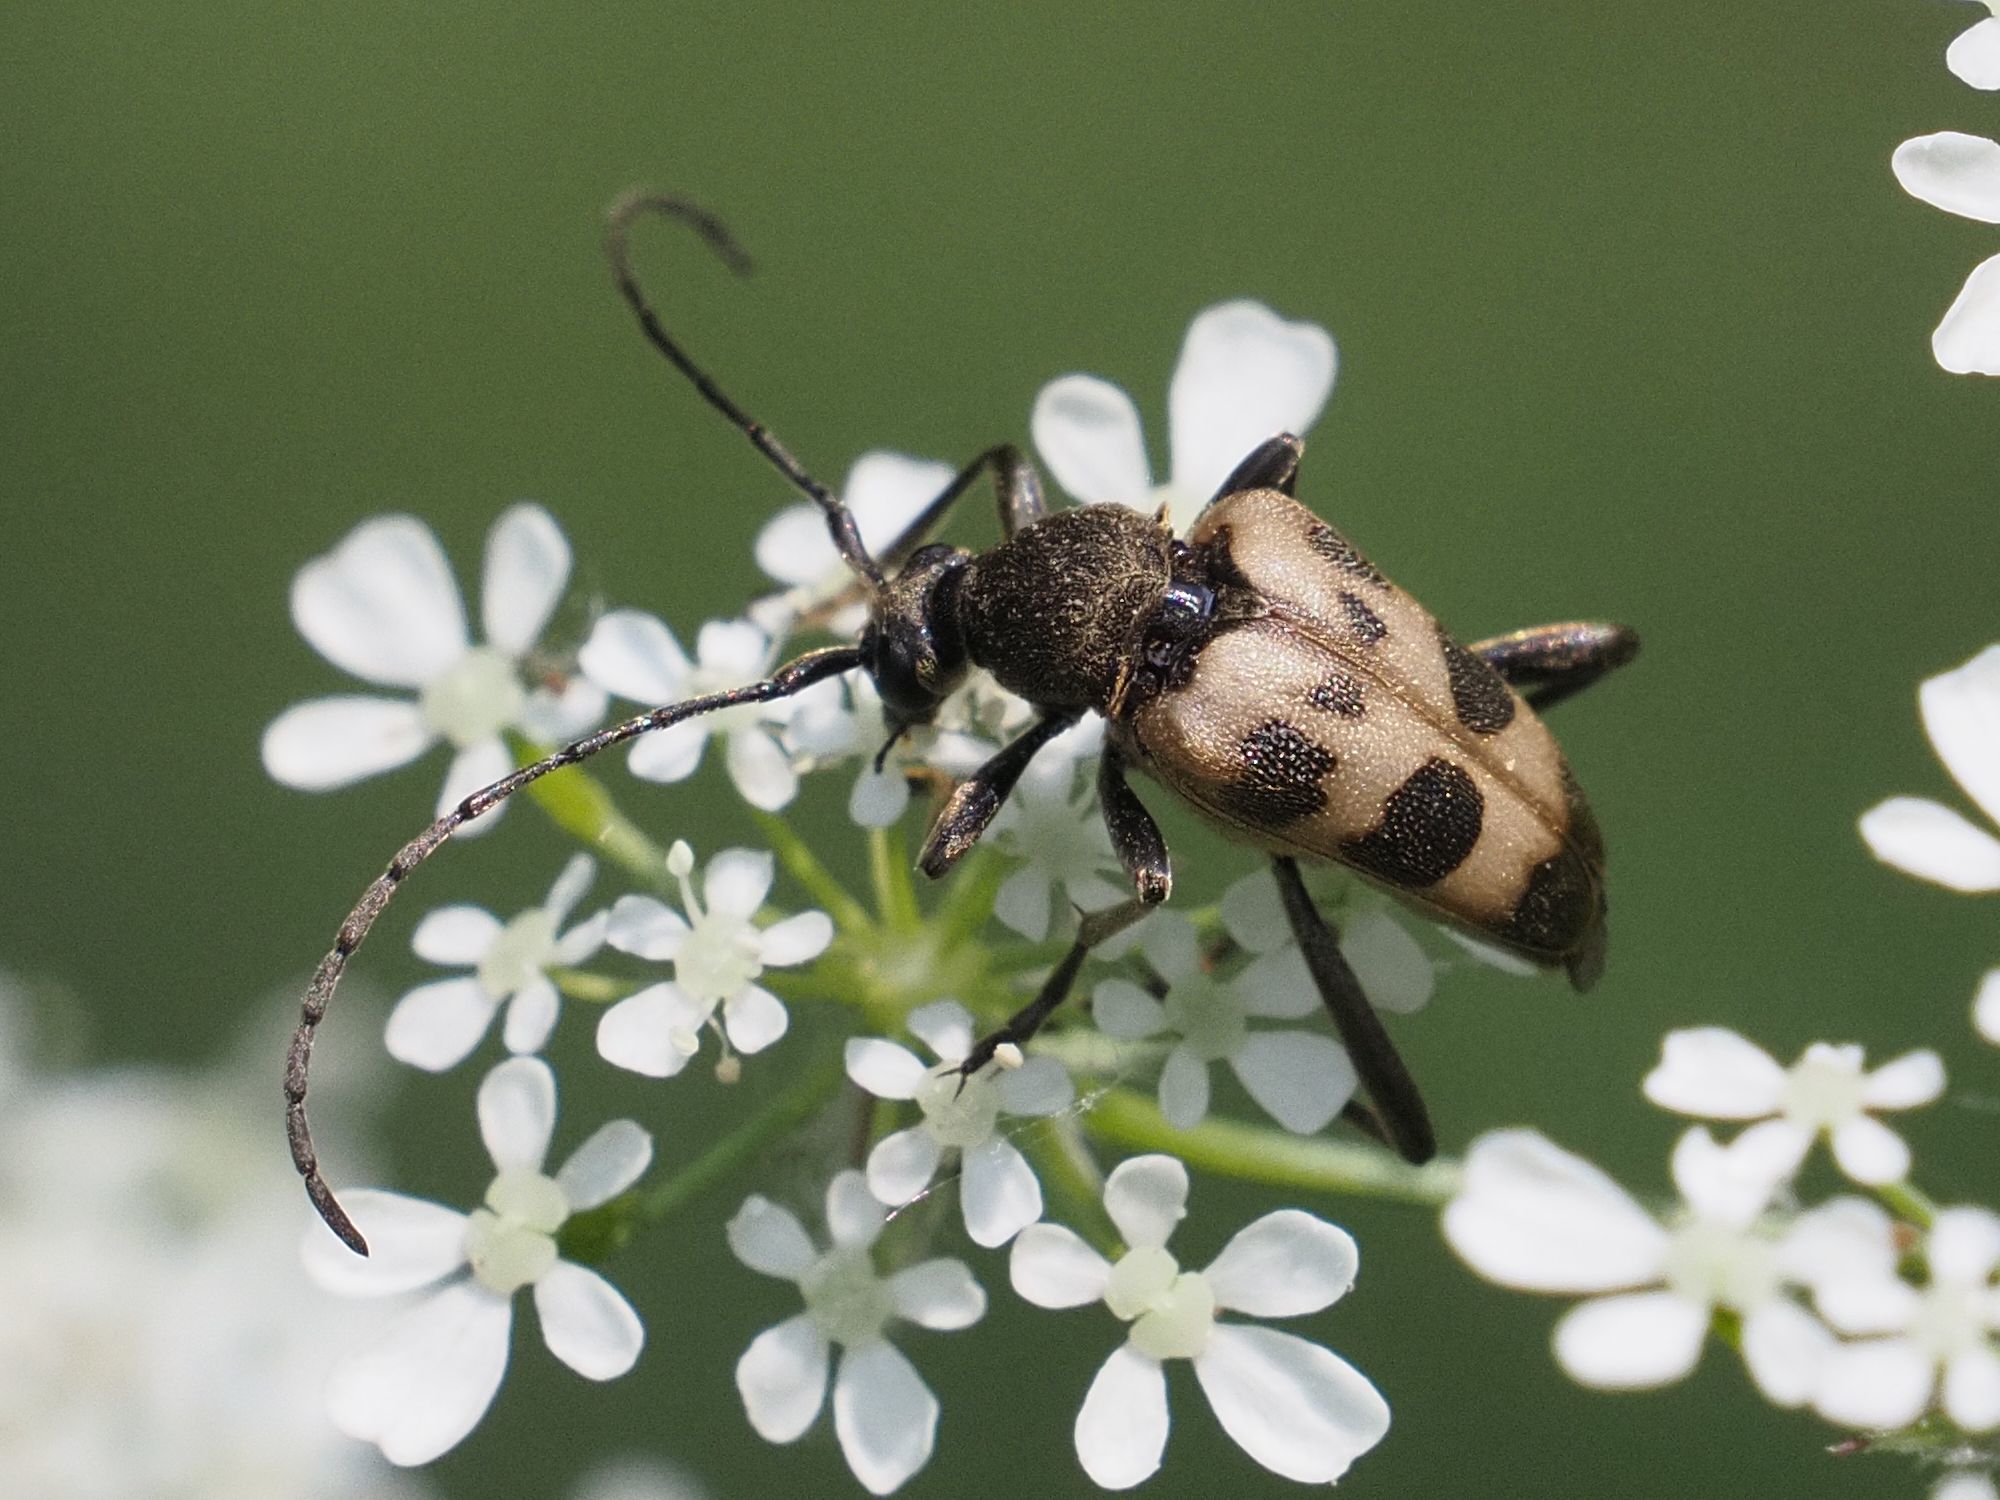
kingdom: Animalia
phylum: Arthropoda
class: Insecta
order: Coleoptera
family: Cerambycidae
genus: Pachytodes
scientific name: Pachytodes cerambyciformis
